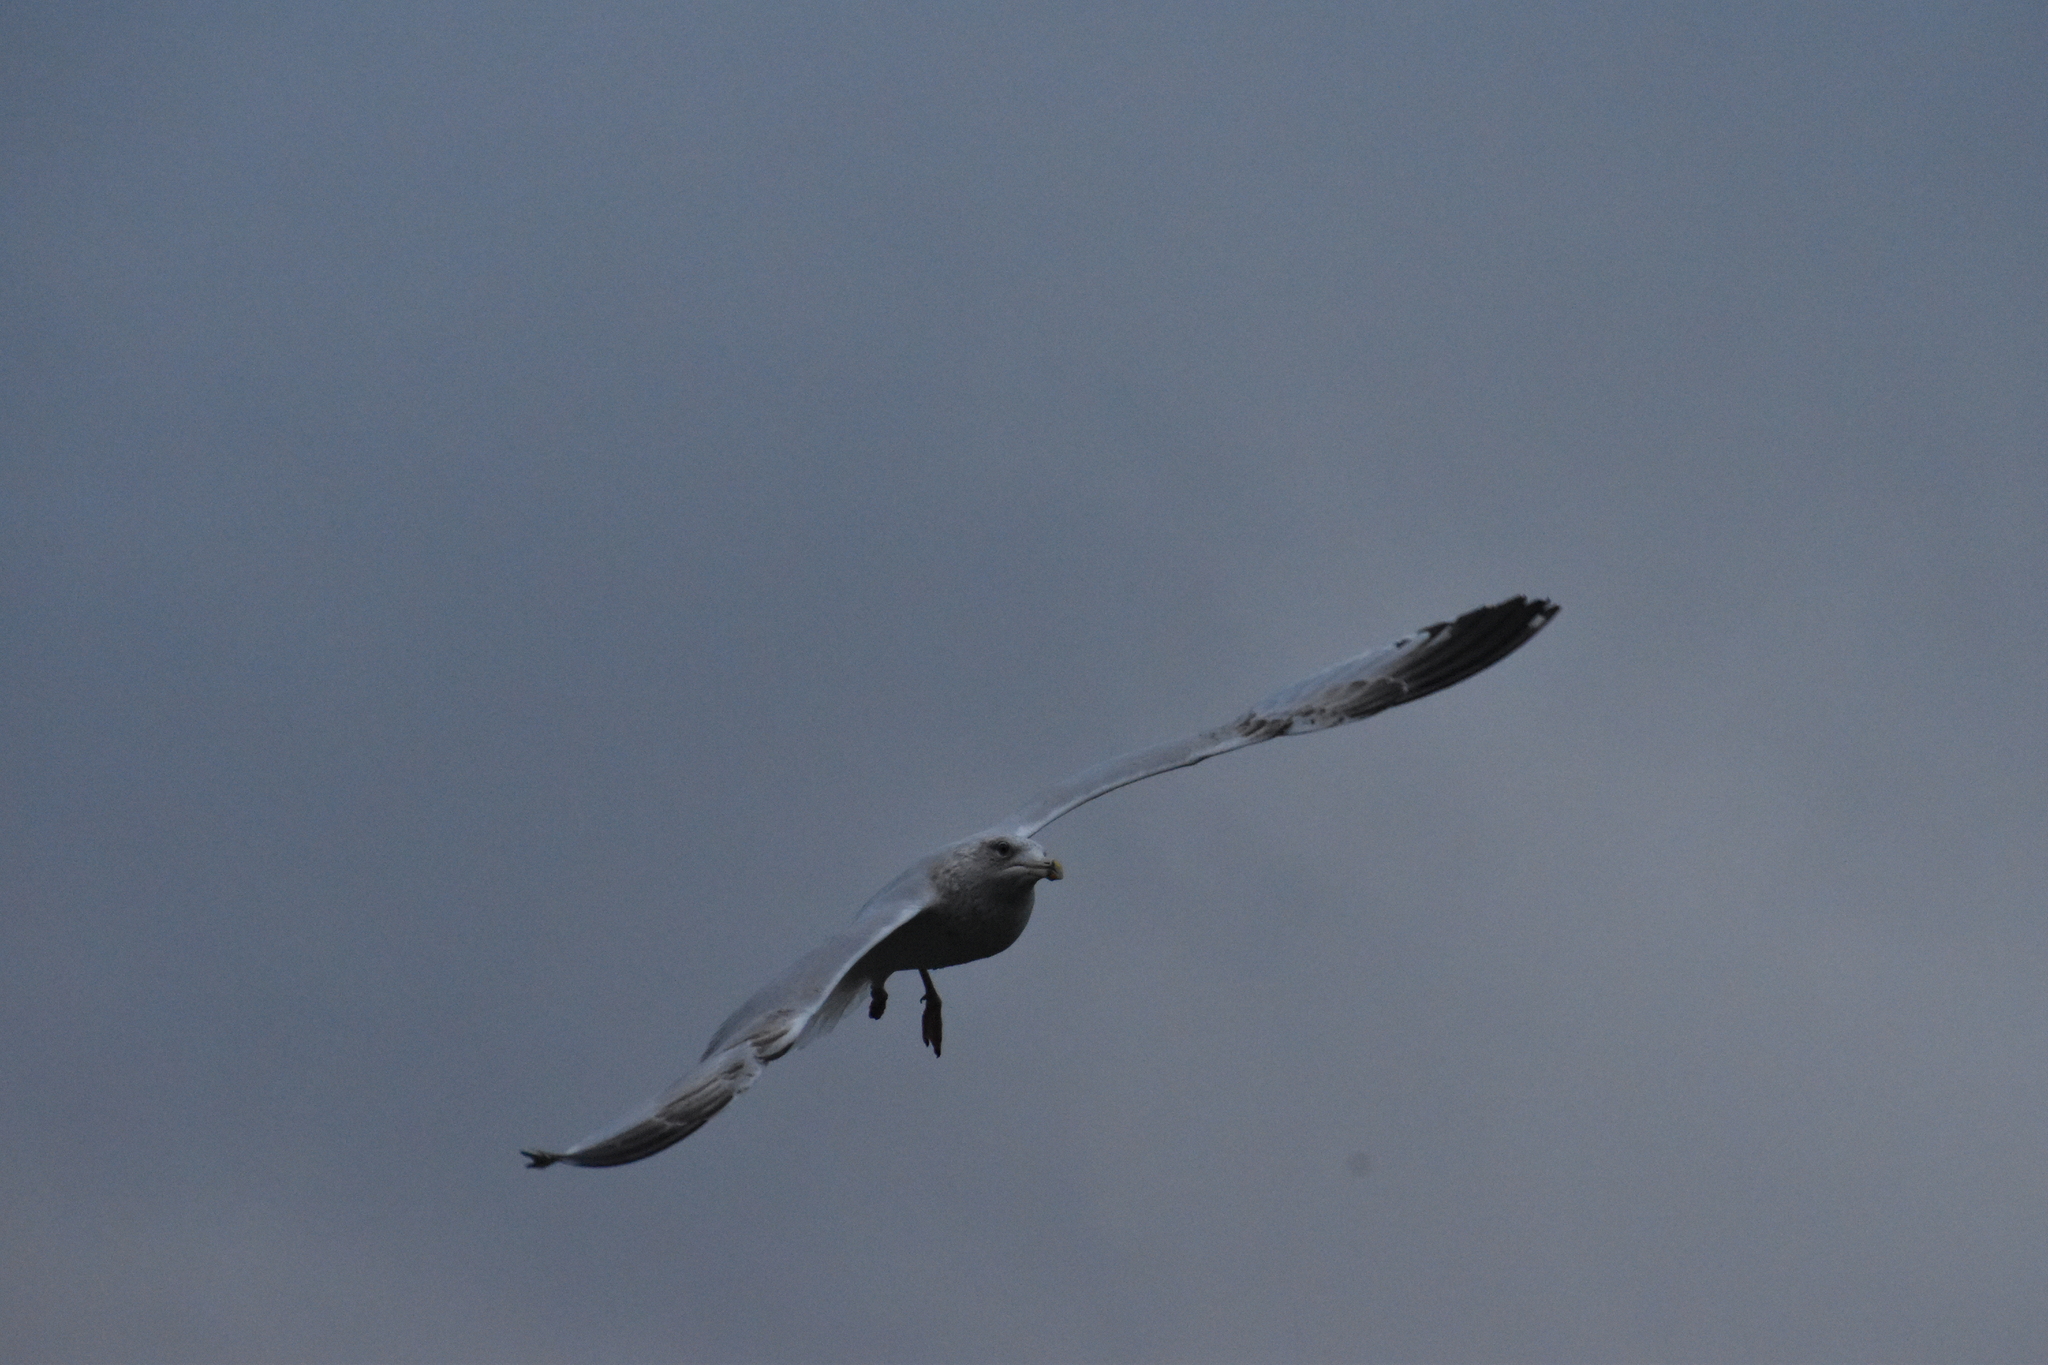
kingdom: Animalia
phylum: Chordata
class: Aves
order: Charadriiformes
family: Laridae
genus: Larus
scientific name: Larus argentatus
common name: Herring gull
